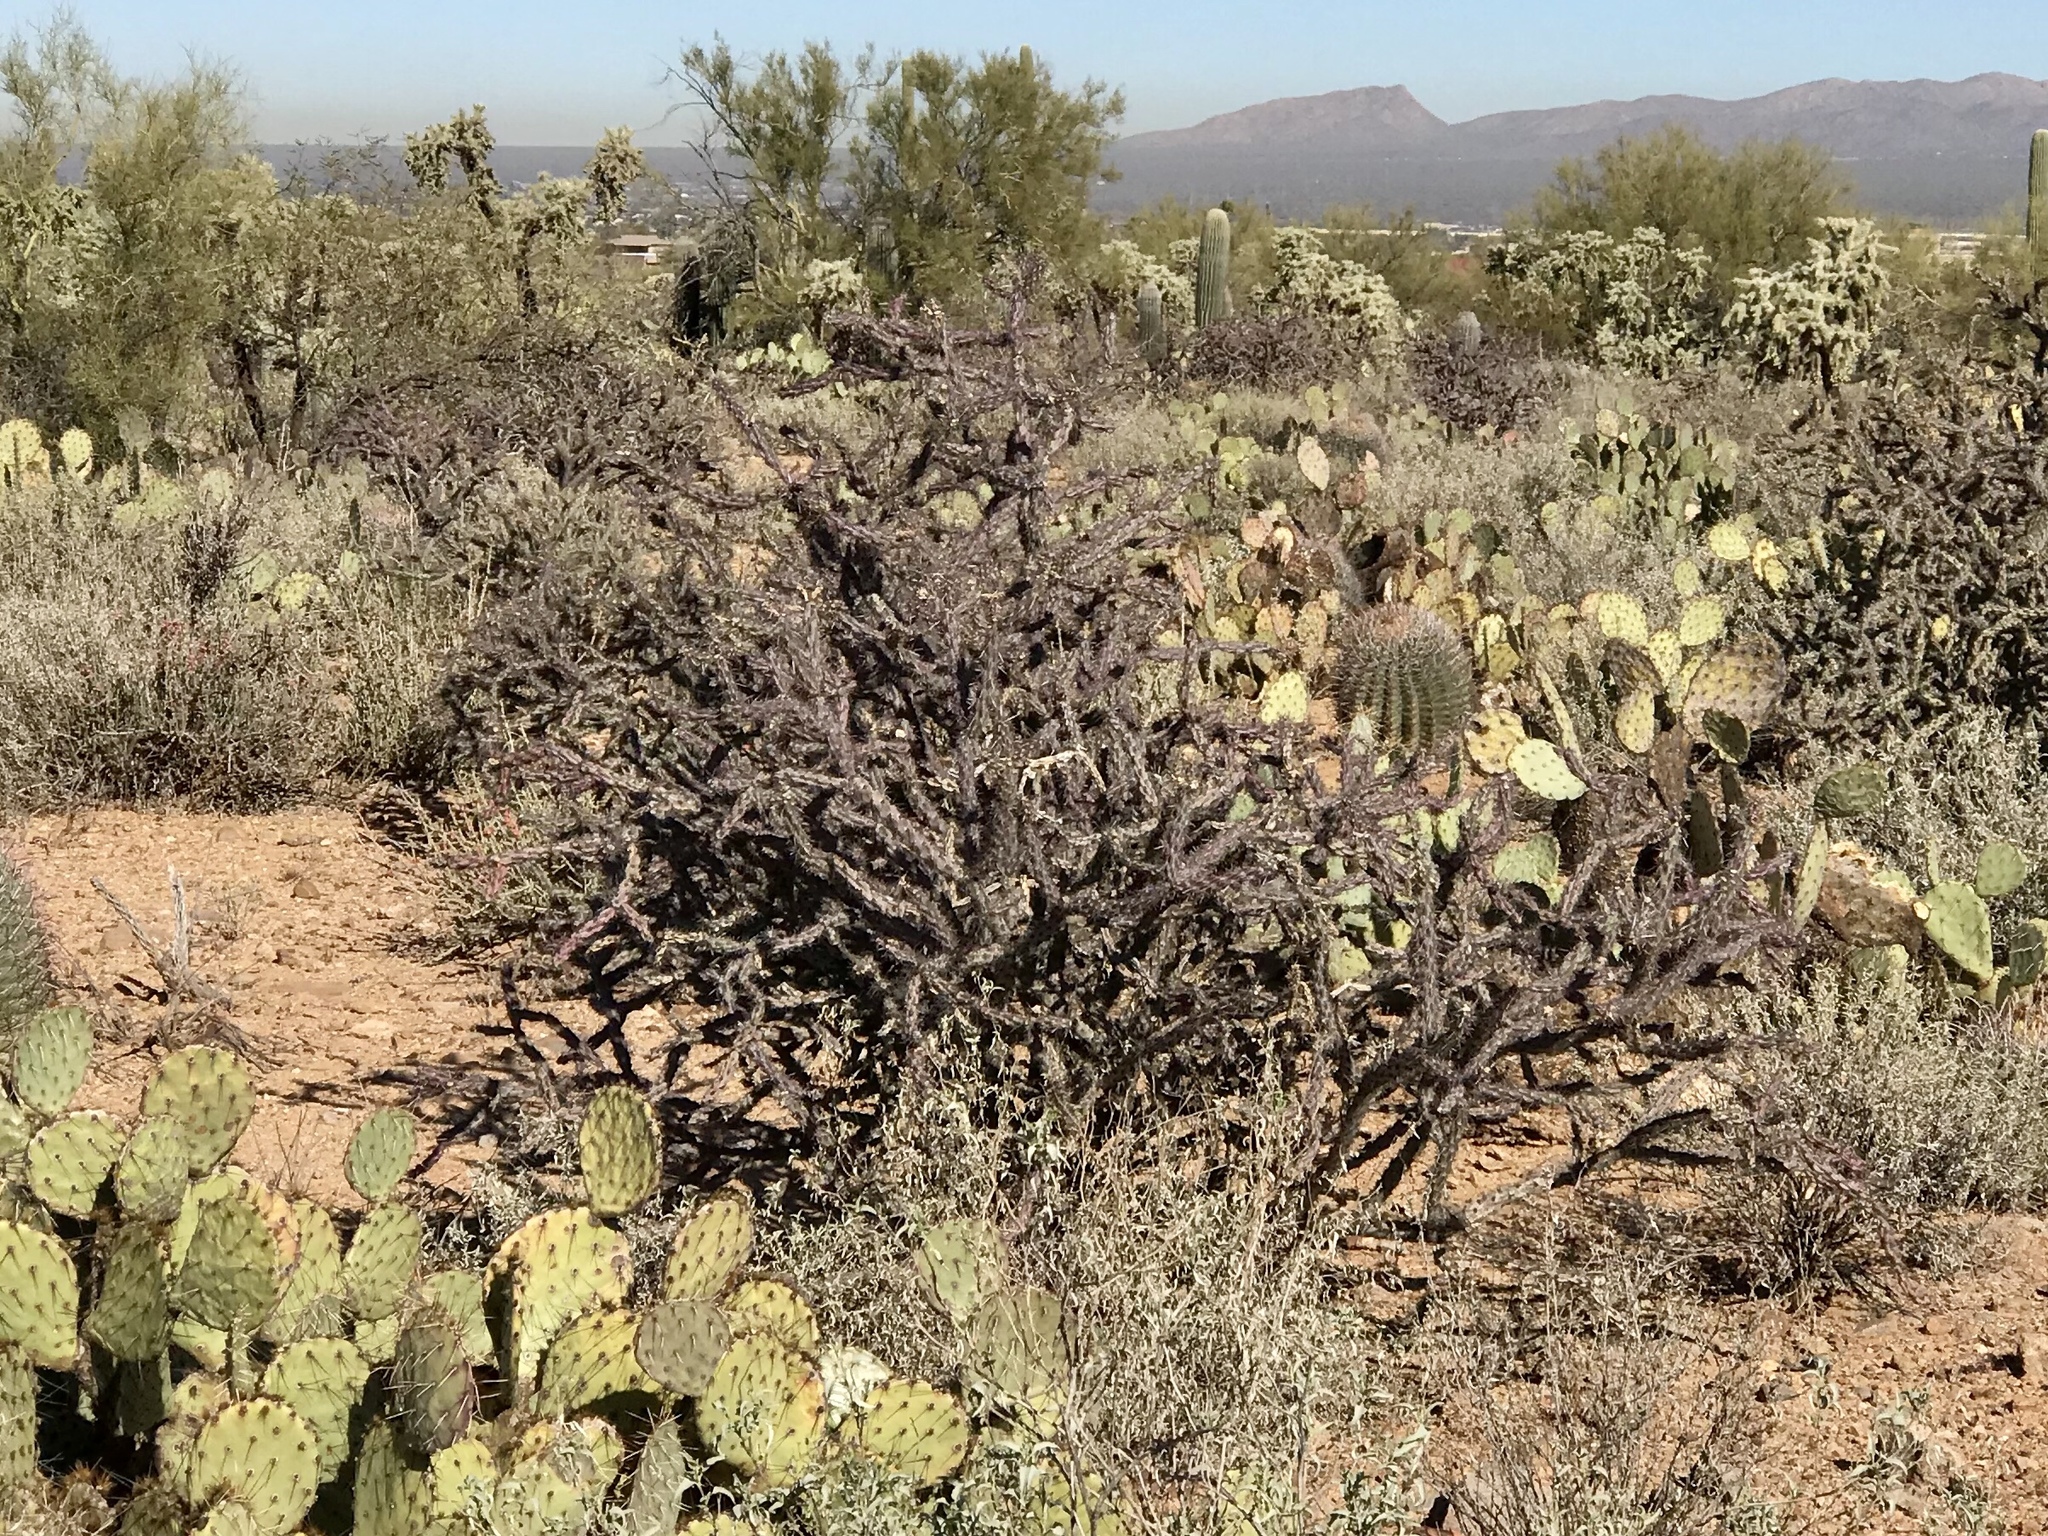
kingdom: Plantae
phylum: Tracheophyta
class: Magnoliopsida
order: Caryophyllales
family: Cactaceae
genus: Cylindropuntia
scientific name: Cylindropuntia thurberi
